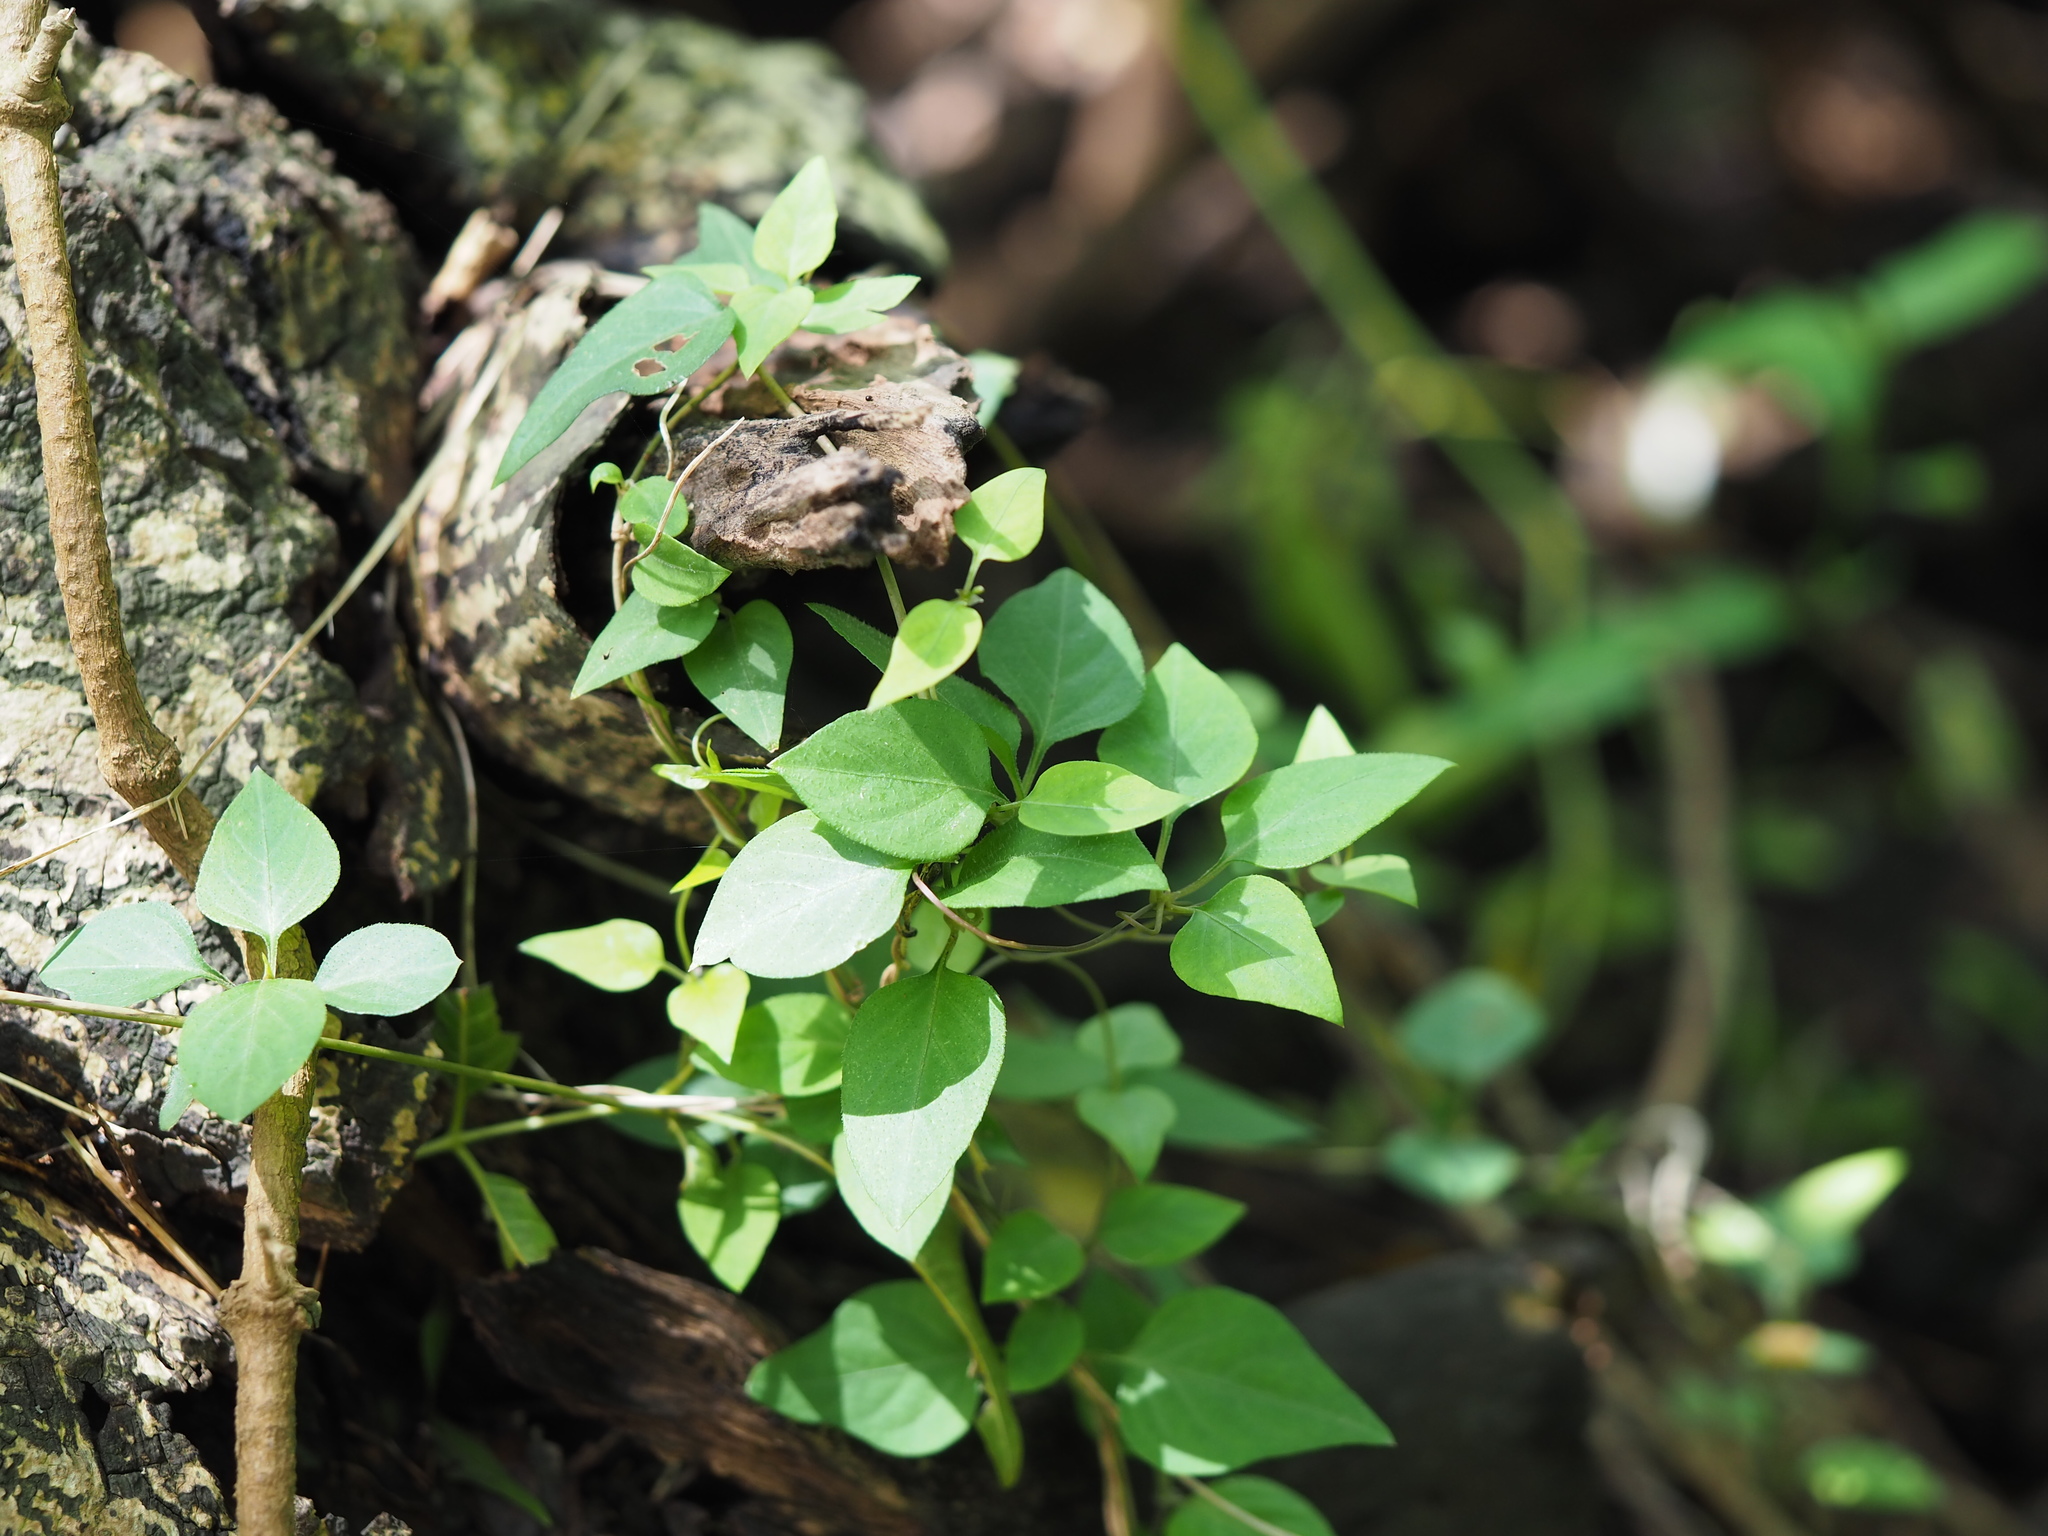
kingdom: Plantae
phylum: Tracheophyta
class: Magnoliopsida
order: Gentianales
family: Rubiaceae
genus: Paederia
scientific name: Paederia foetida
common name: Stinkvine
